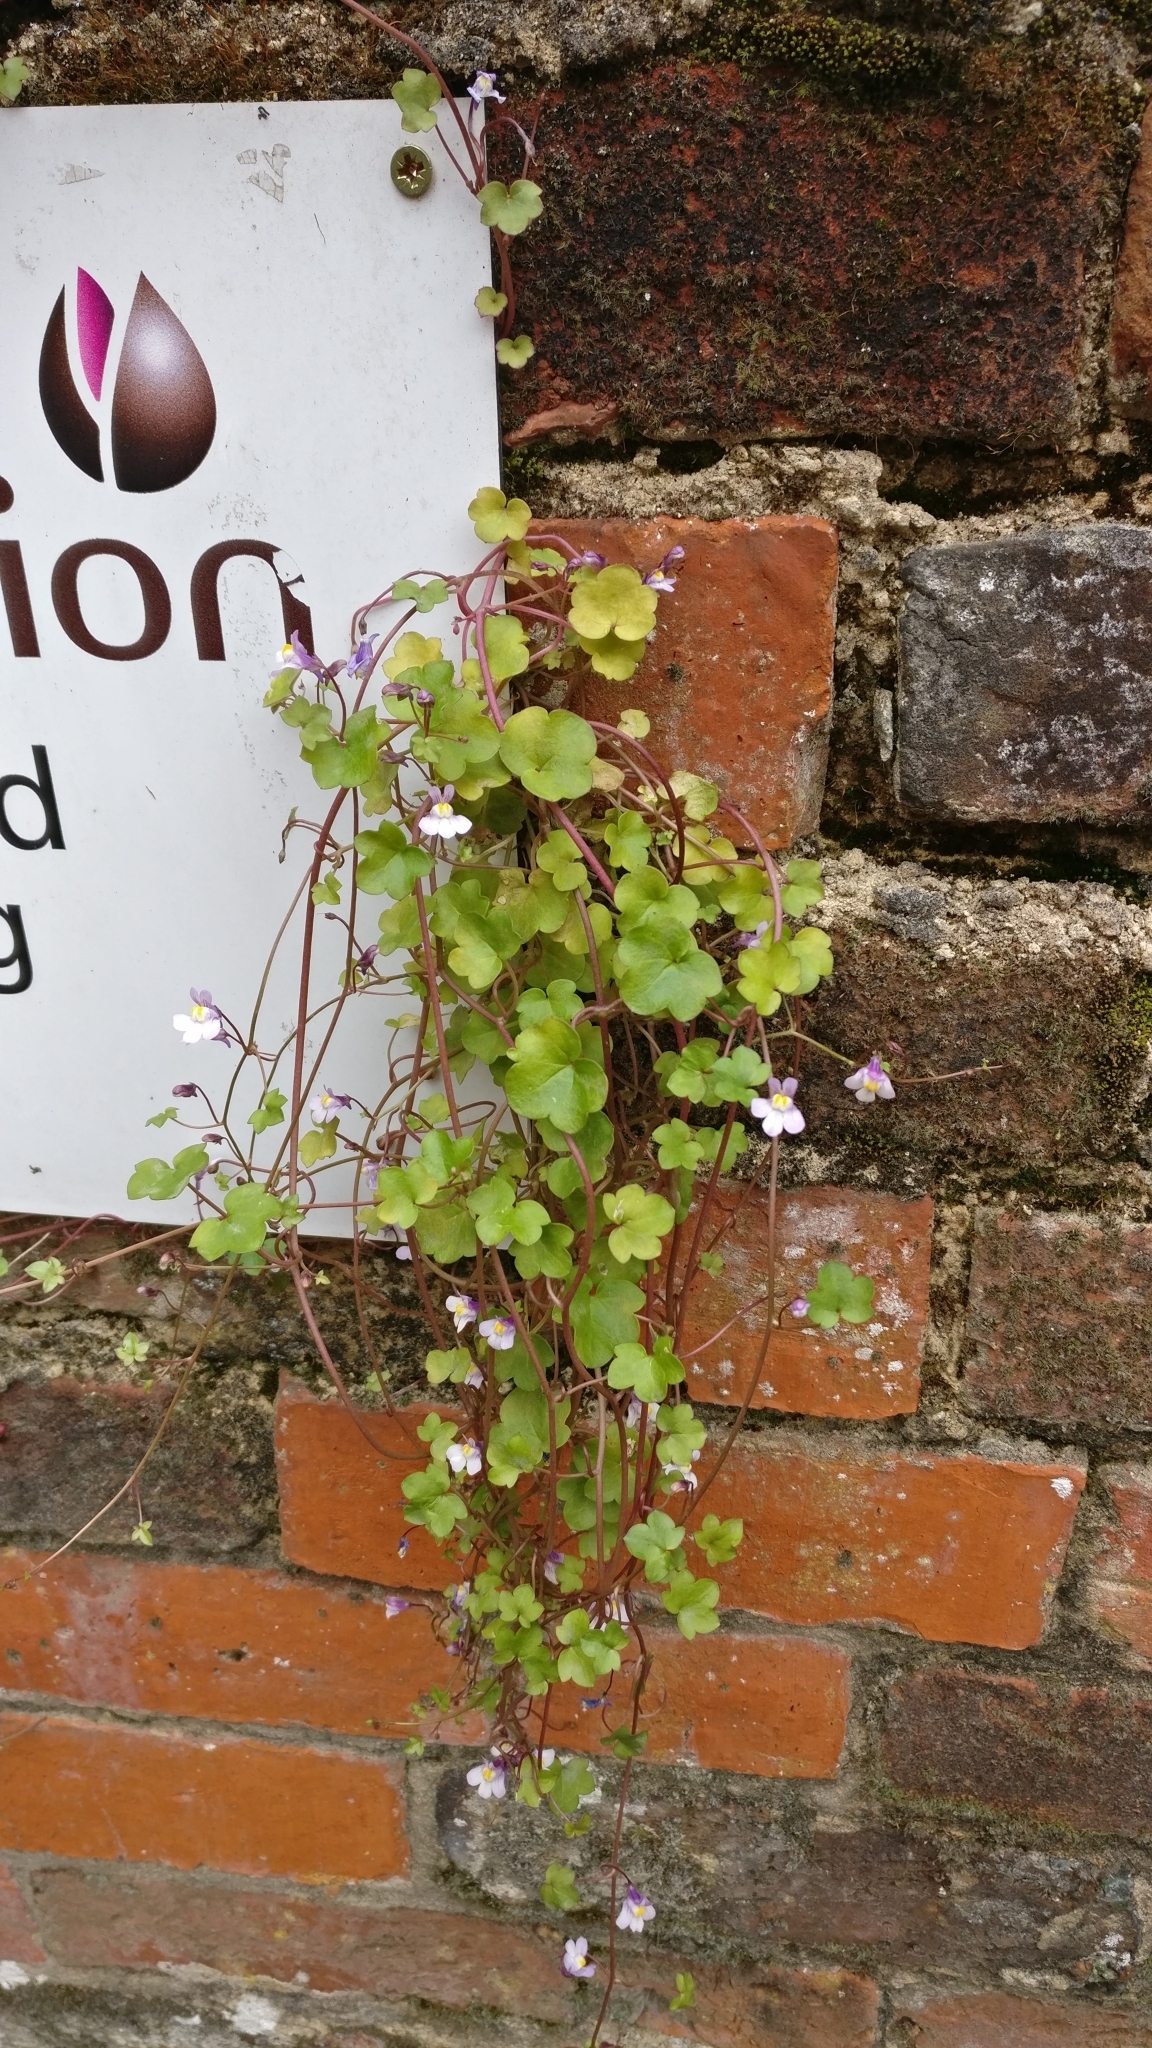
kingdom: Plantae
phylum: Tracheophyta
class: Magnoliopsida
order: Lamiales
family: Plantaginaceae
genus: Cymbalaria
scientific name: Cymbalaria muralis
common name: Ivy-leaved toadflax
